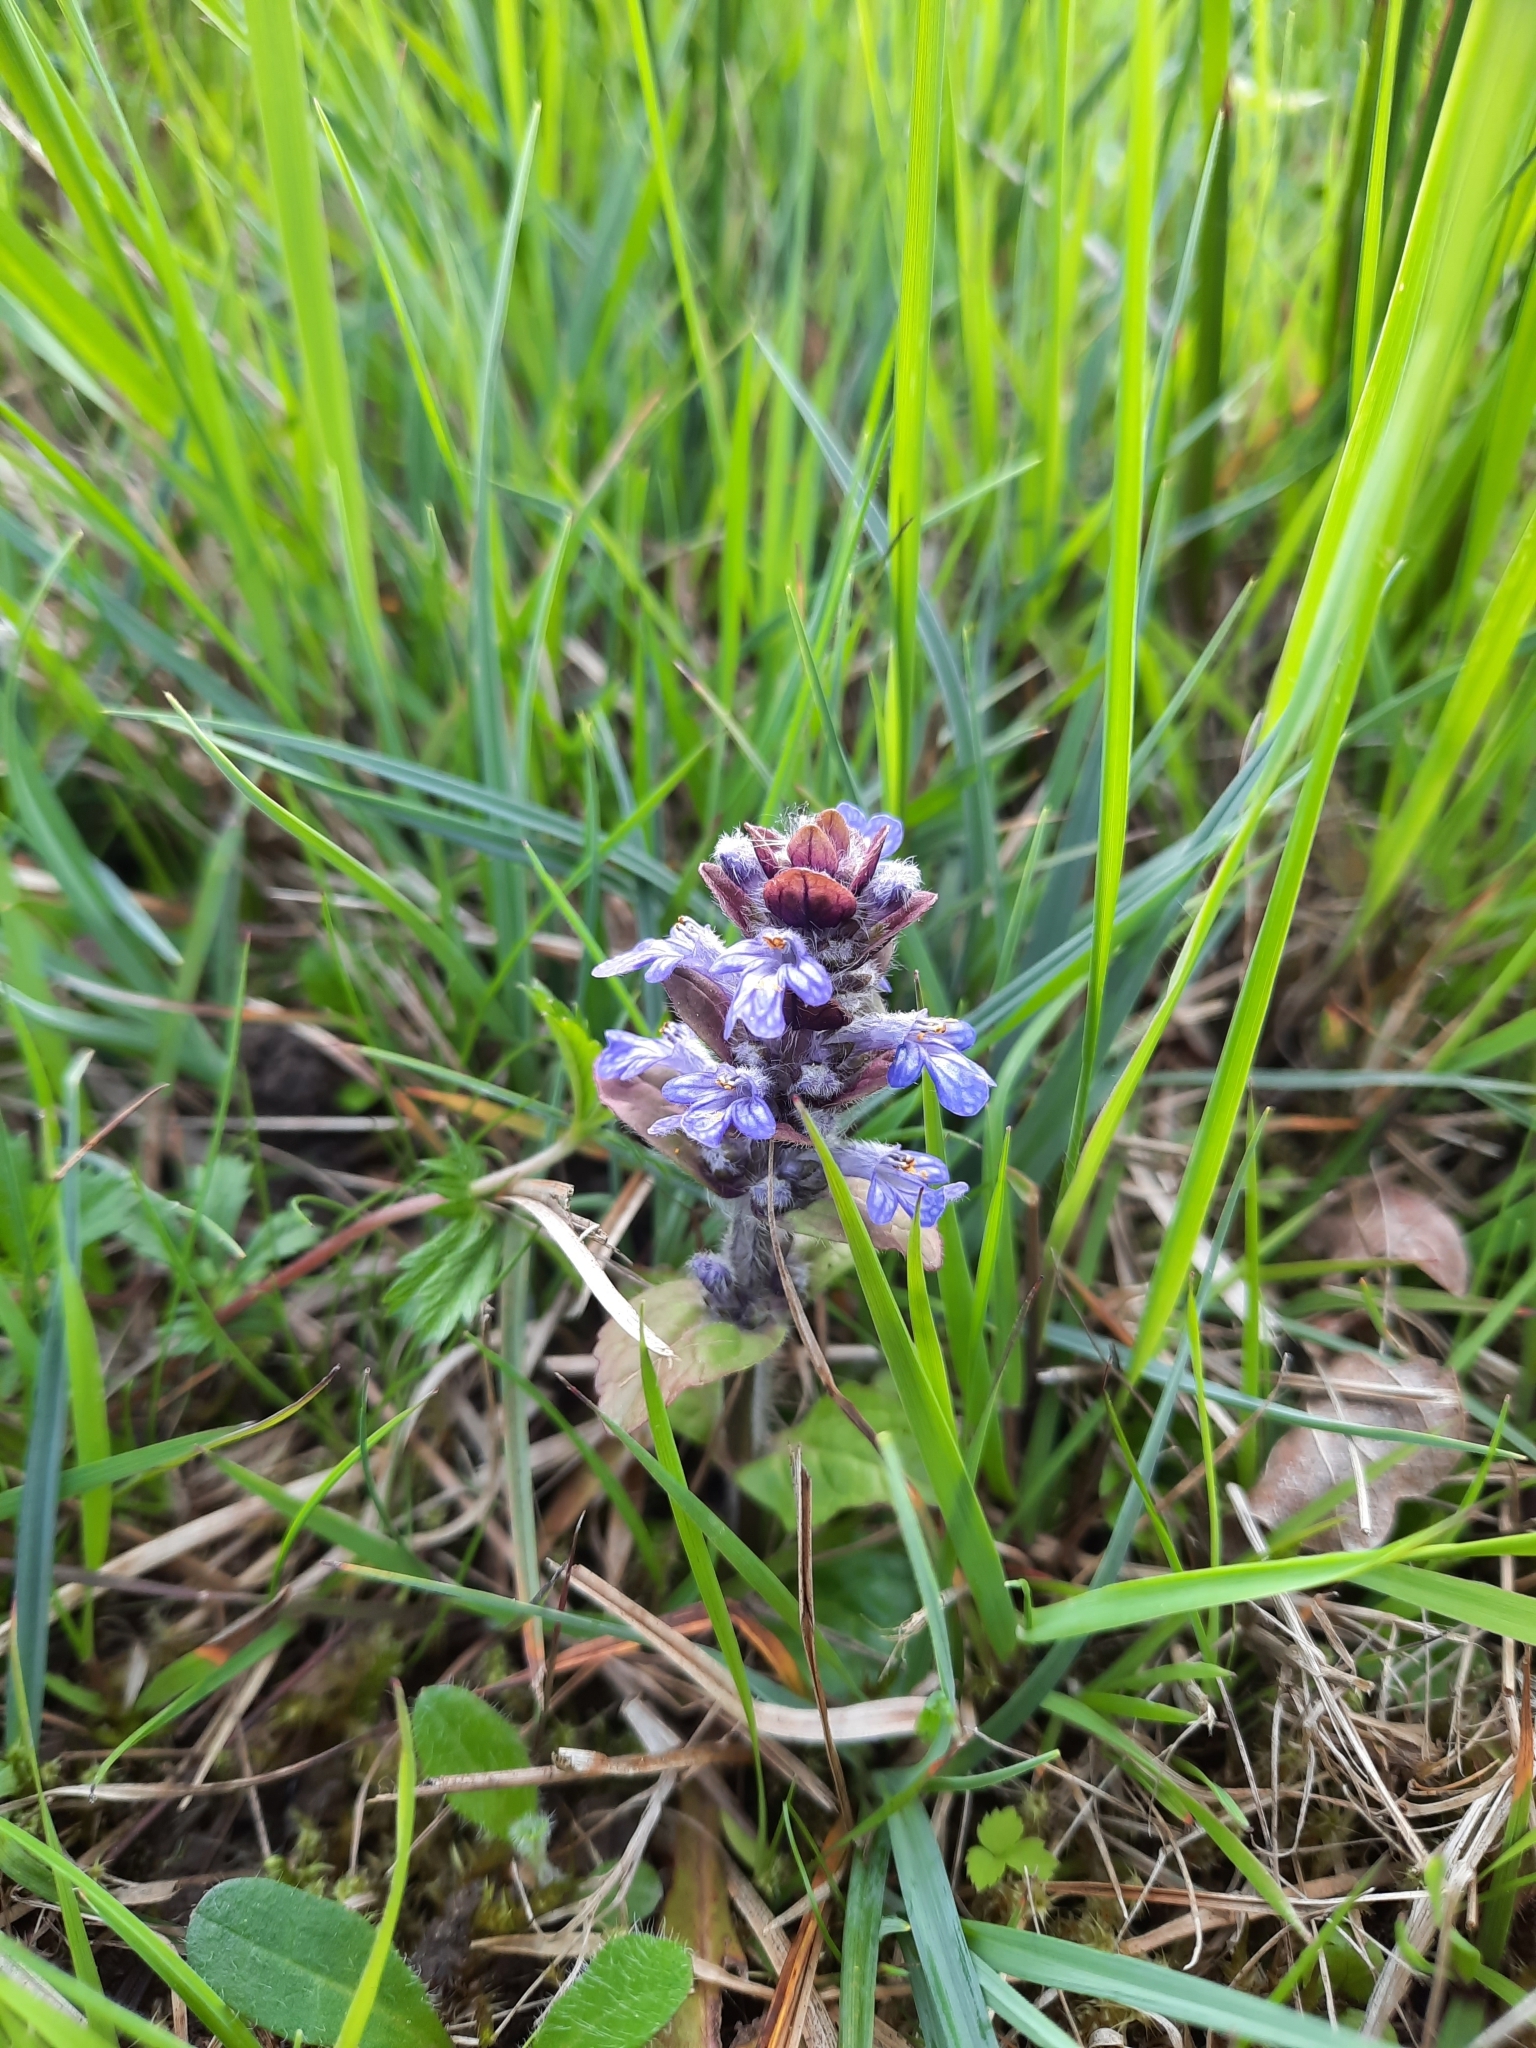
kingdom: Plantae
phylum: Tracheophyta
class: Magnoliopsida
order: Lamiales
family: Lamiaceae
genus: Ajuga
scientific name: Ajuga reptans
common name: Bugle
